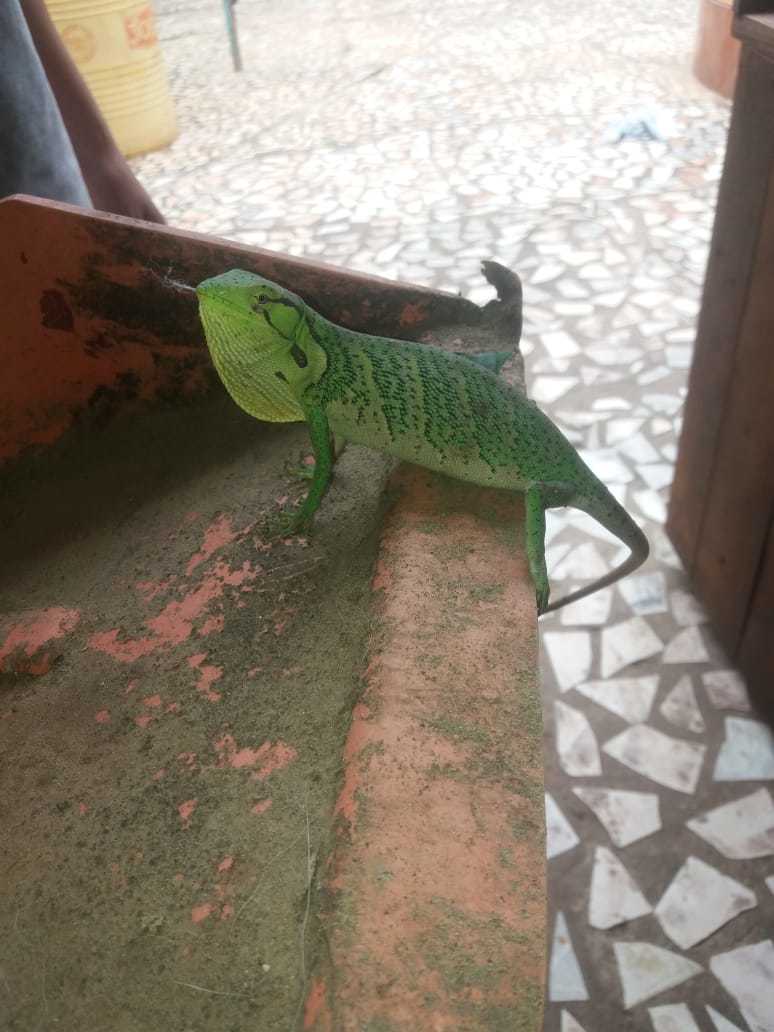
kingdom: Animalia
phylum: Chordata
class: Squamata
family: Polychrotidae
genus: Polychrus
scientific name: Polychrus liogaster
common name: Boulenger's bush anole
